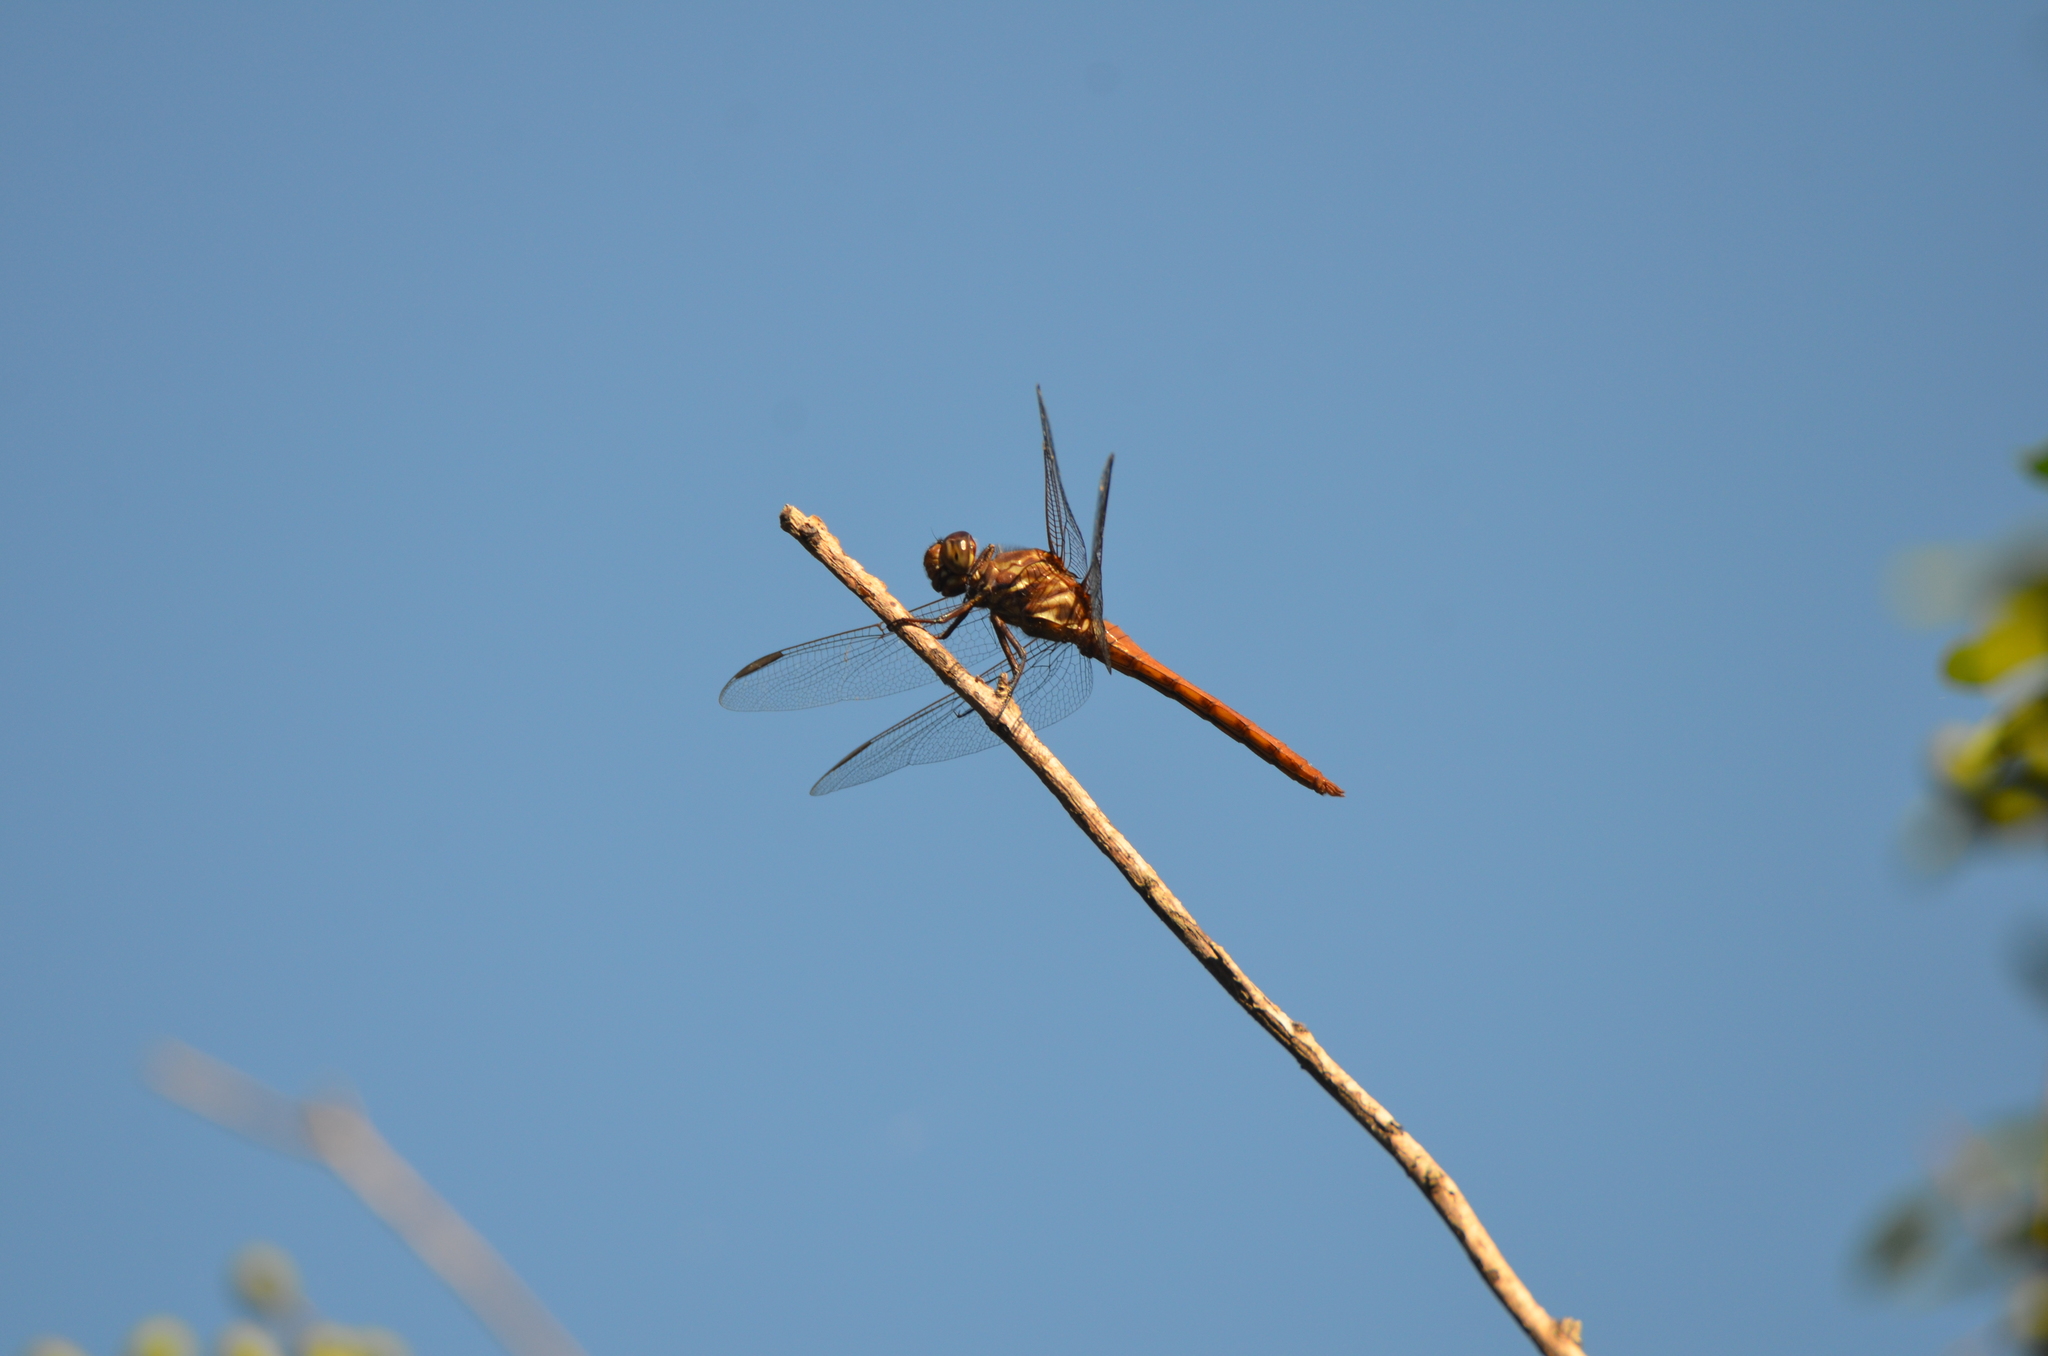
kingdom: Animalia
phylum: Arthropoda
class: Insecta
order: Odonata
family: Libellulidae
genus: Orthemis
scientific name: Orthemis ferruginea
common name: Roseate skimmer
